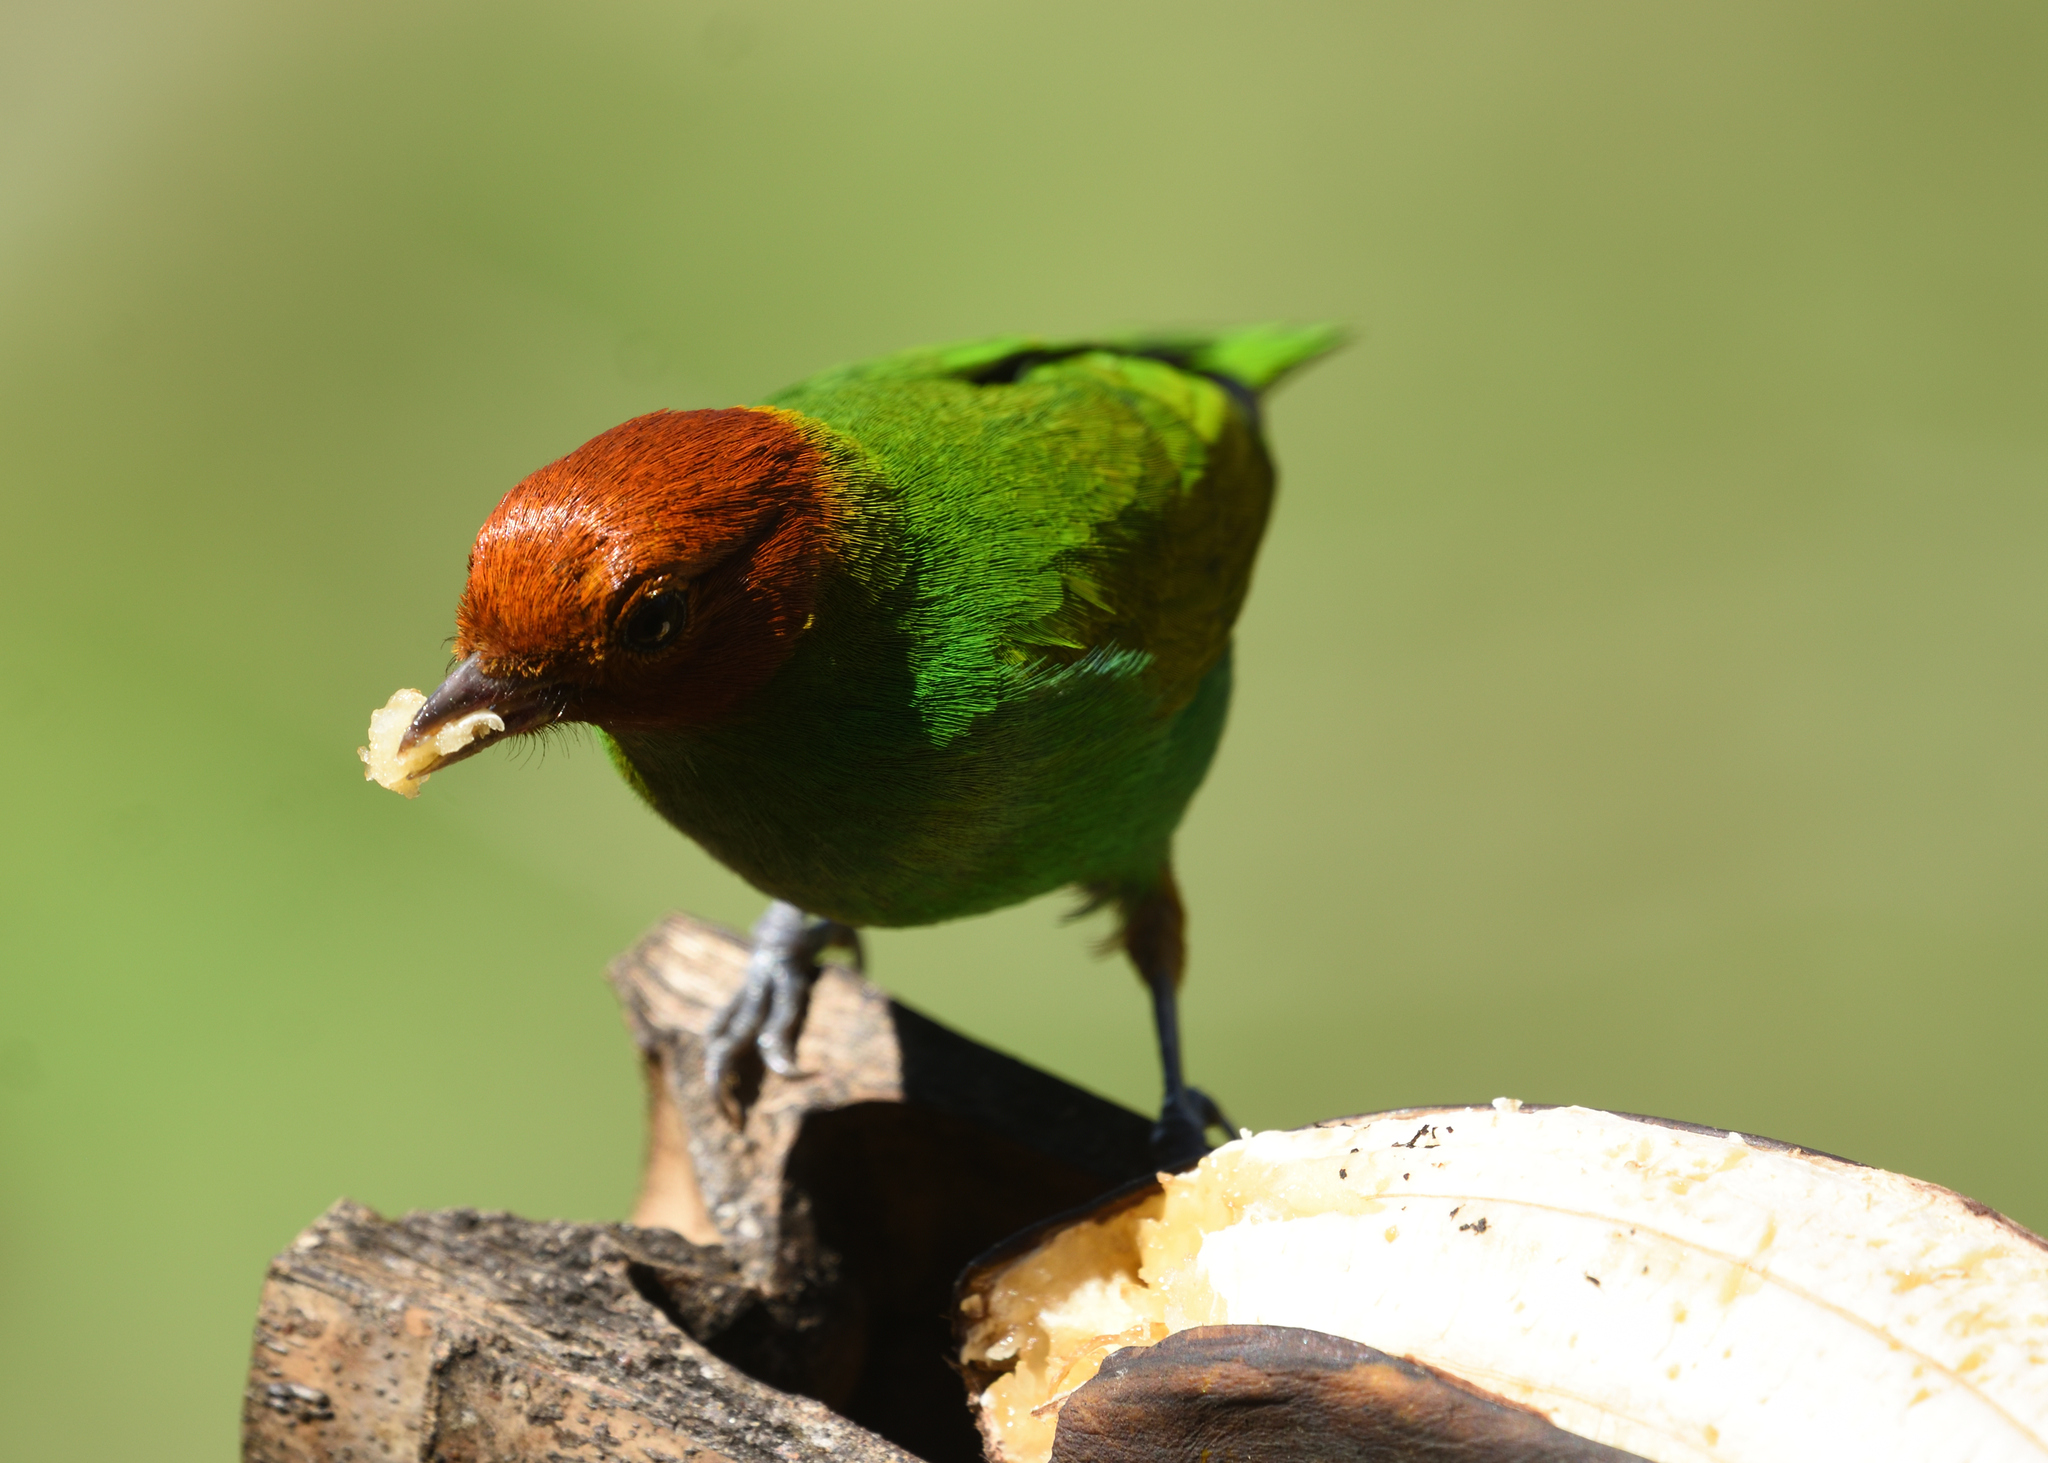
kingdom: Animalia
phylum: Chordata
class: Aves
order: Passeriformes
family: Thraupidae
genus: Tangara
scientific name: Tangara gyrola
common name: Bay-headed tanager
